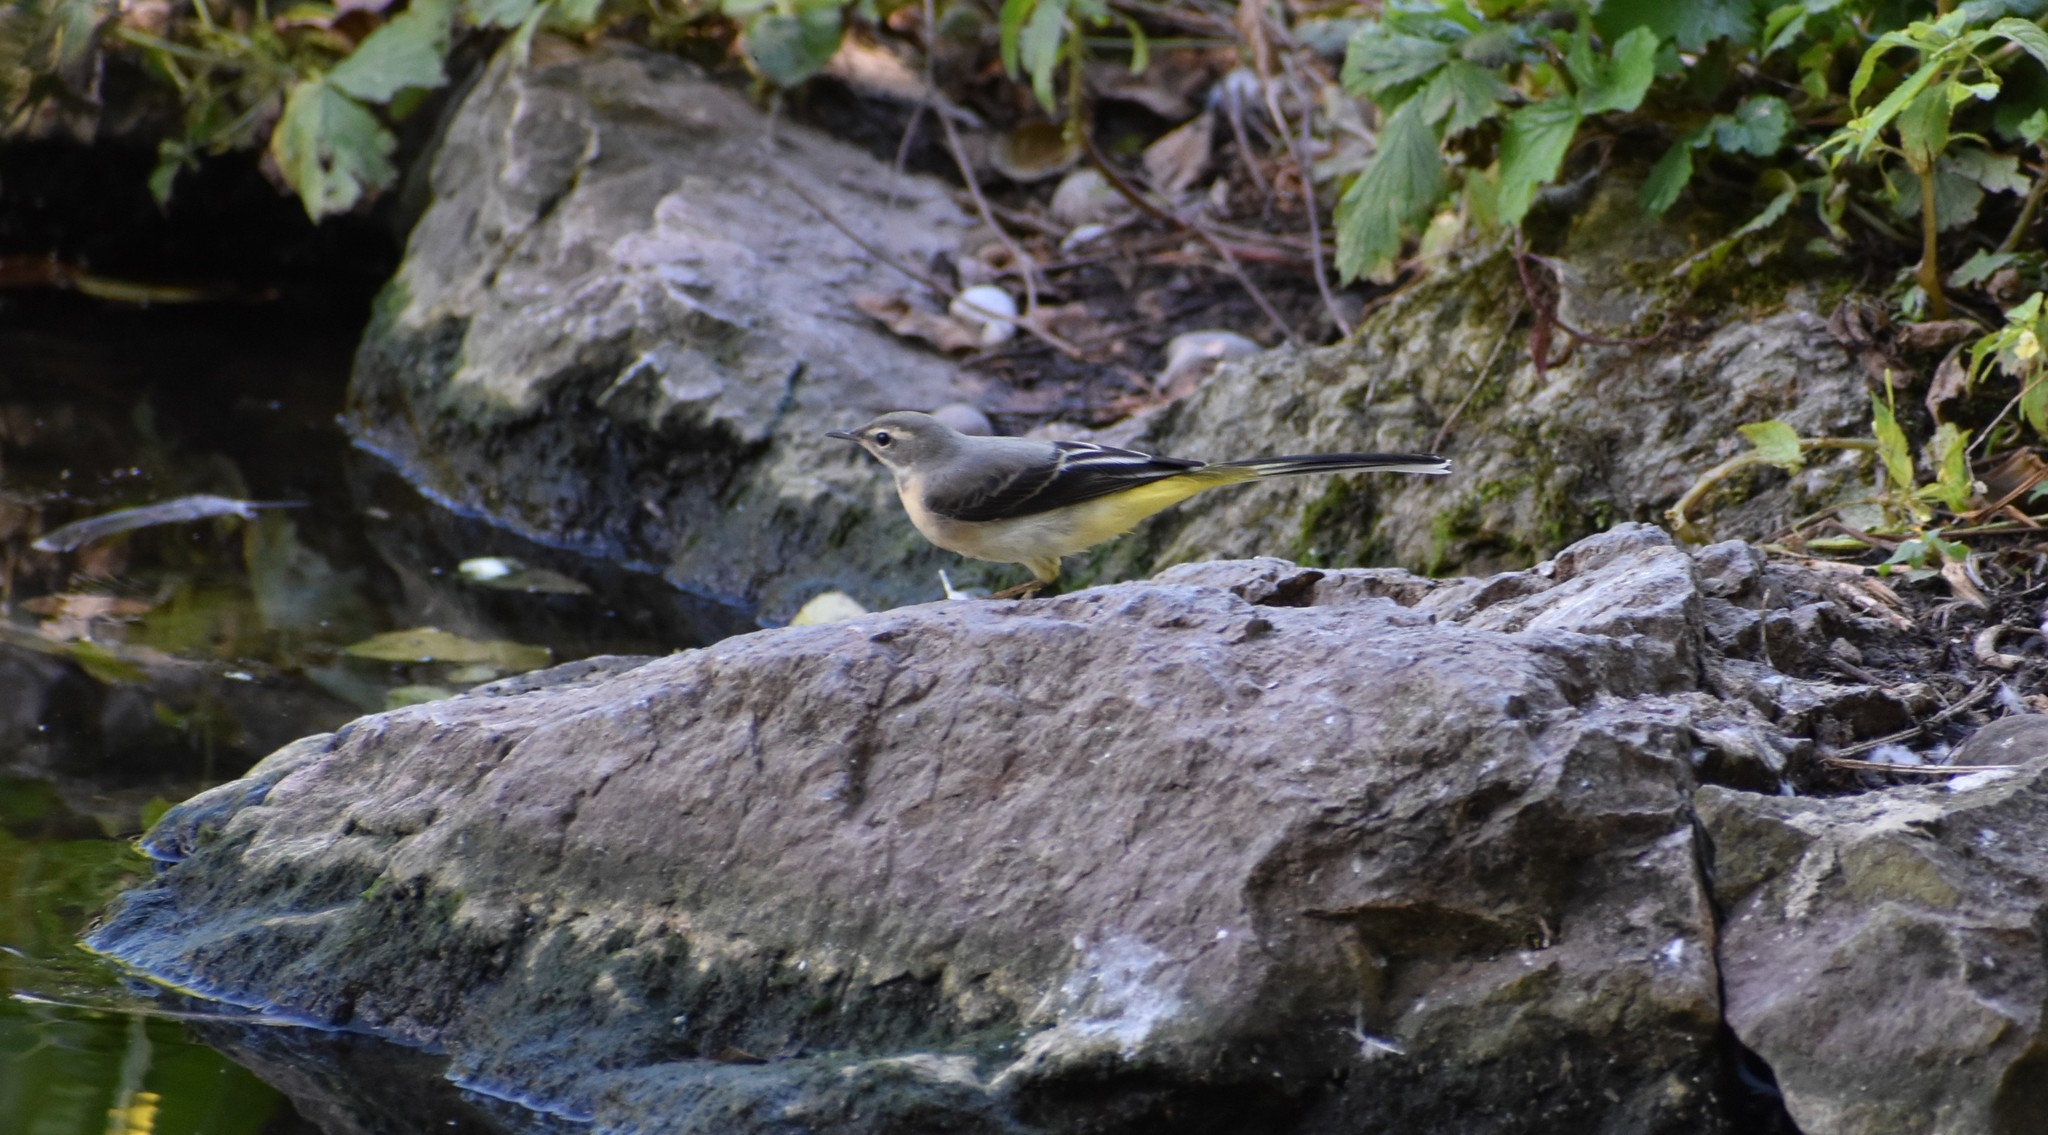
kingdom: Animalia
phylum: Chordata
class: Aves
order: Passeriformes
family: Motacillidae
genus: Motacilla
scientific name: Motacilla cinerea
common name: Grey wagtail
